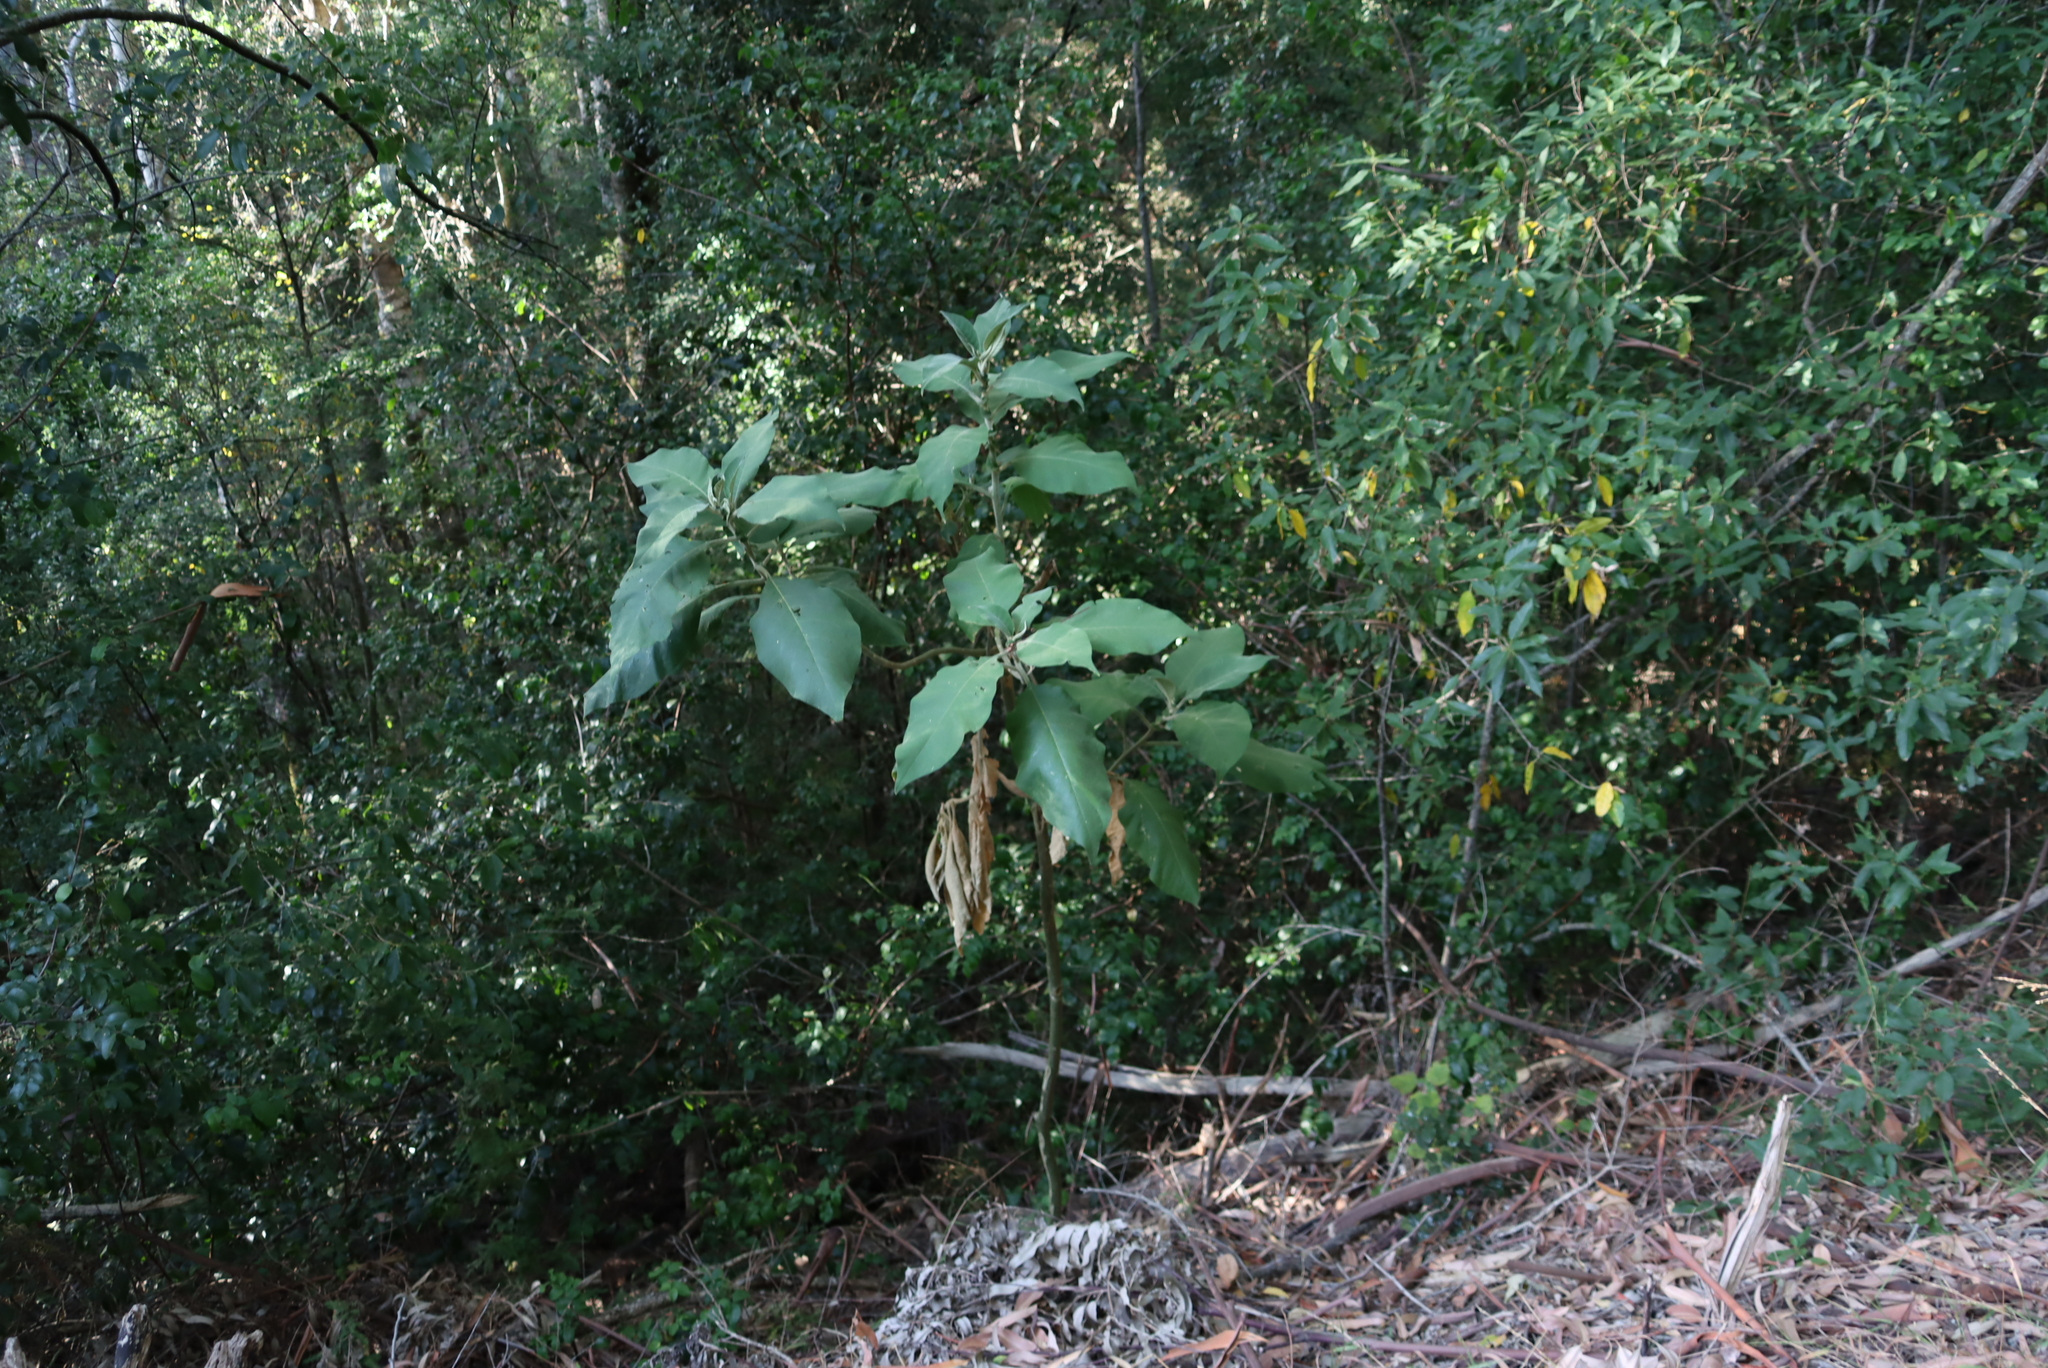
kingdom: Plantae
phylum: Tracheophyta
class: Magnoliopsida
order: Solanales
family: Solanaceae
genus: Solanum
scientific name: Solanum mauritianum
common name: Earleaf nightshade
